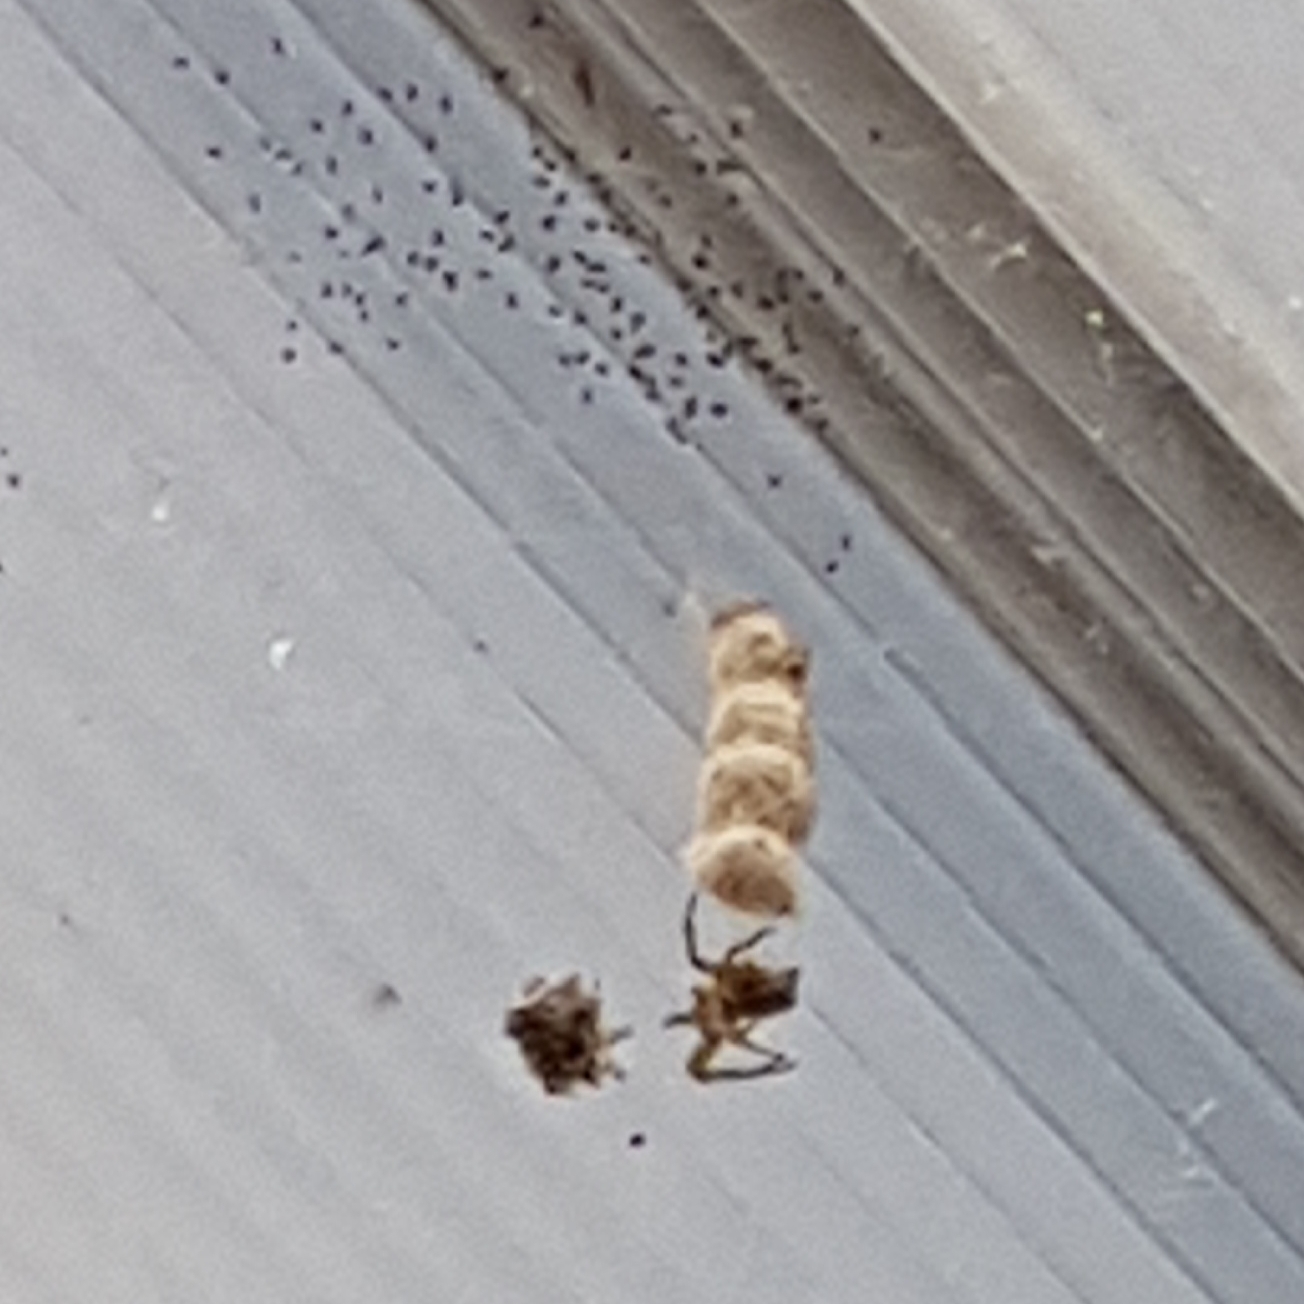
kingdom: Animalia
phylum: Arthropoda
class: Arachnida
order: Araneae
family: Araneidae
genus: Cyrtophora
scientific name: Cyrtophora citricola
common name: Orb weavers
